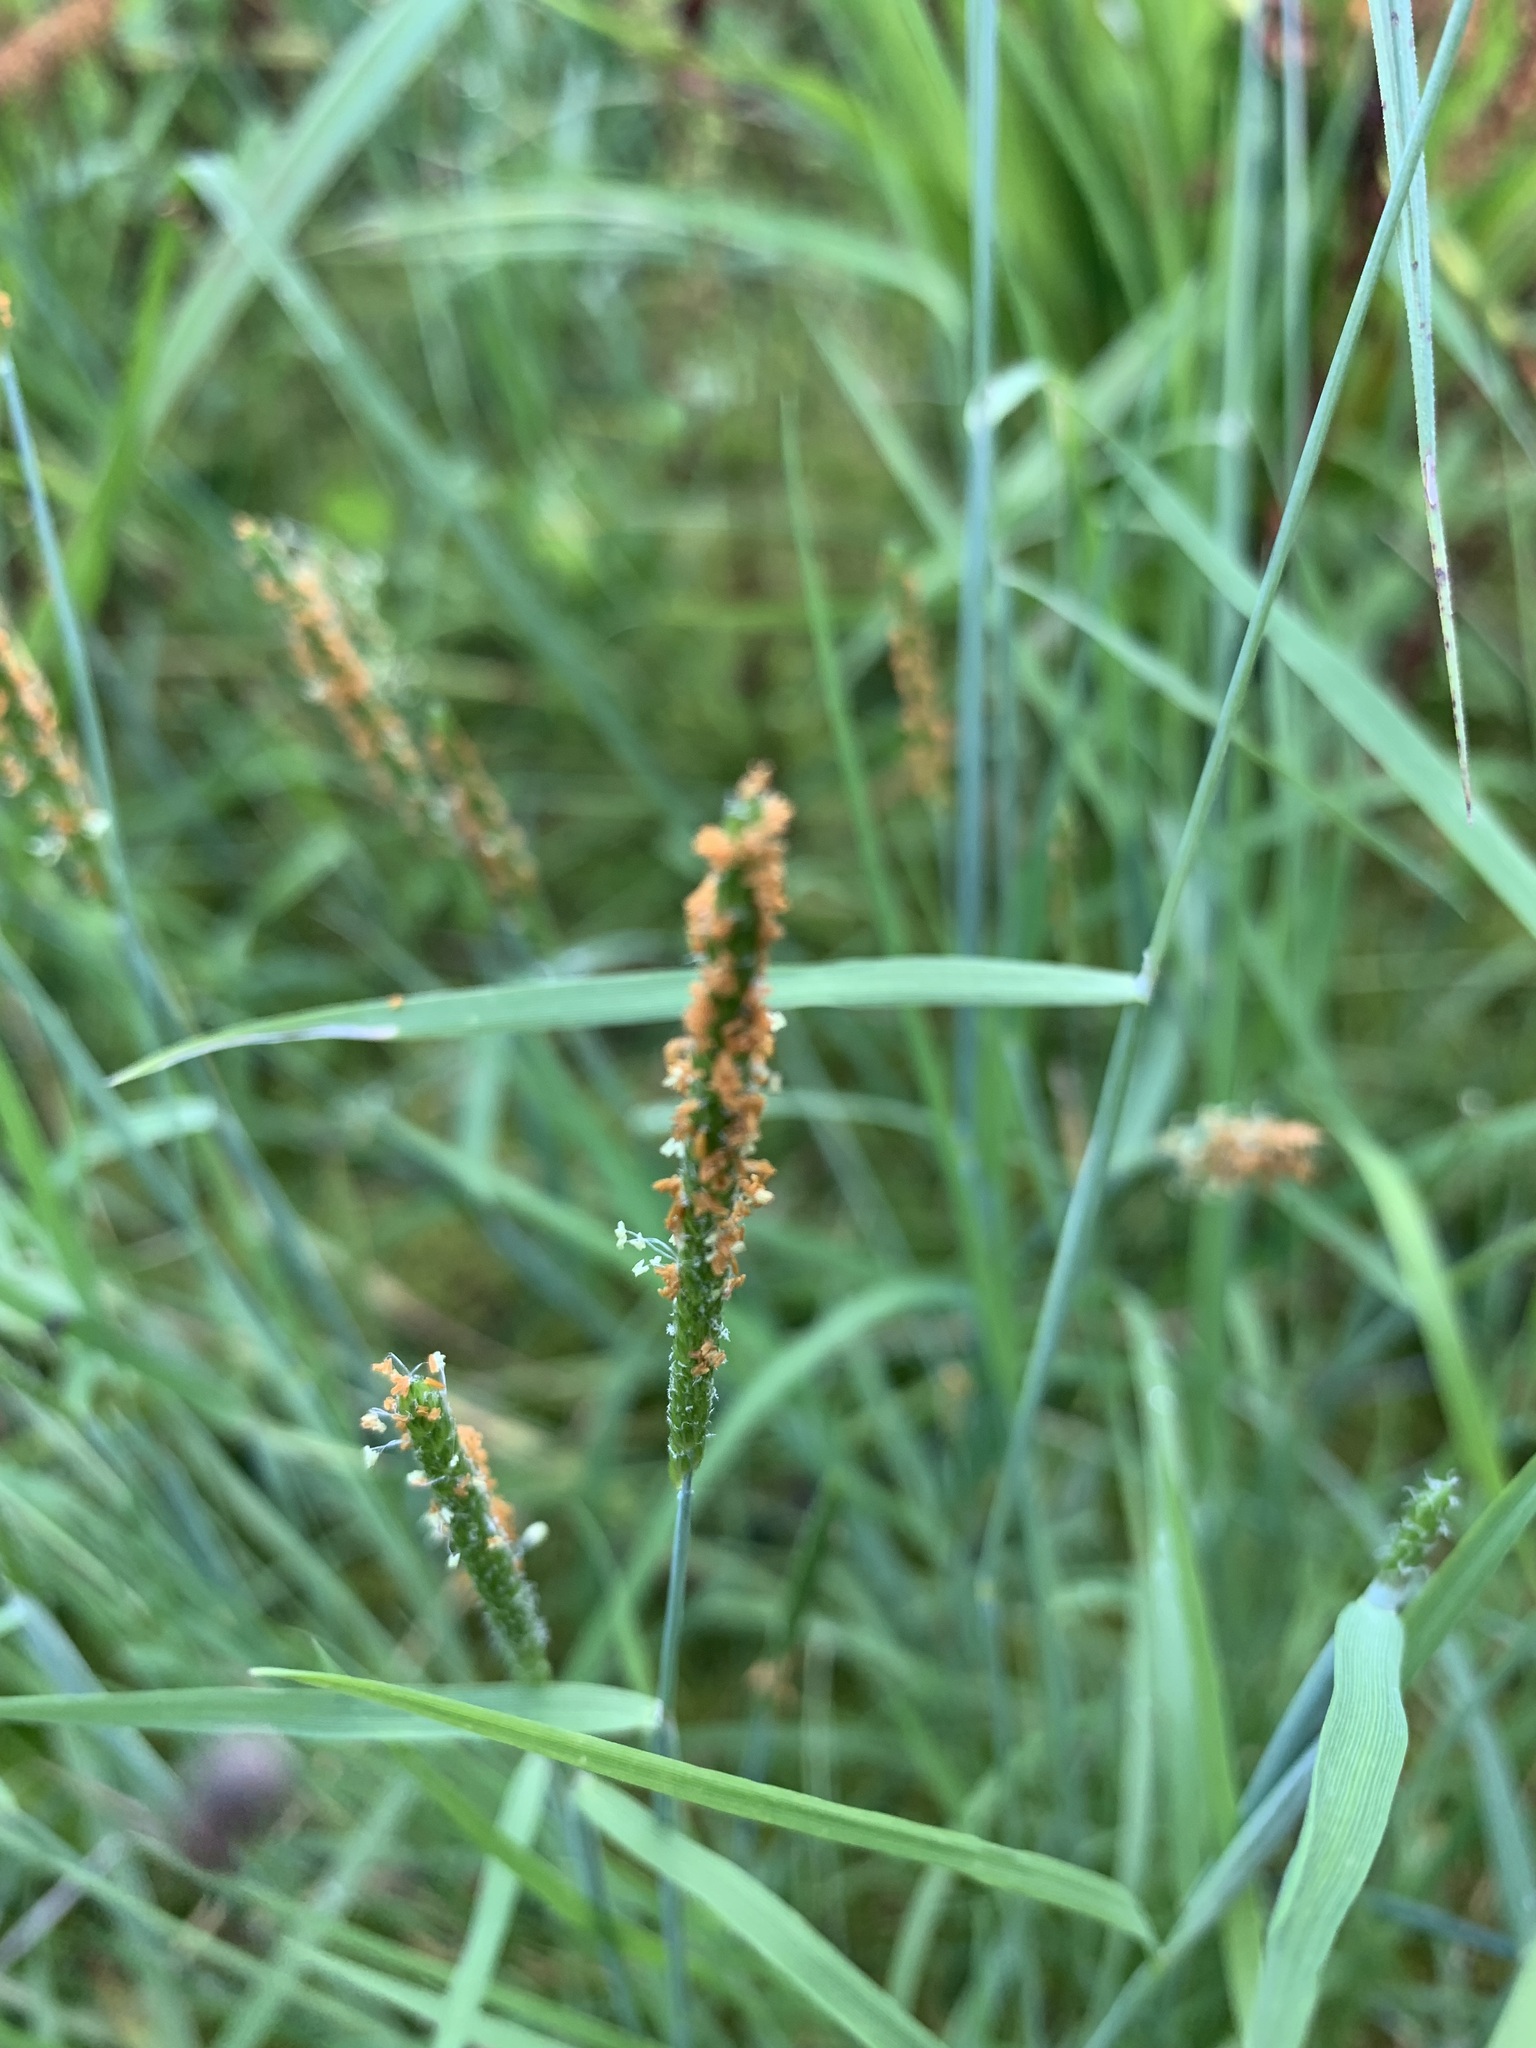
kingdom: Plantae
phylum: Tracheophyta
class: Liliopsida
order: Poales
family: Poaceae
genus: Alopecurus
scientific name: Alopecurus aequalis
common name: Orange foxtail
